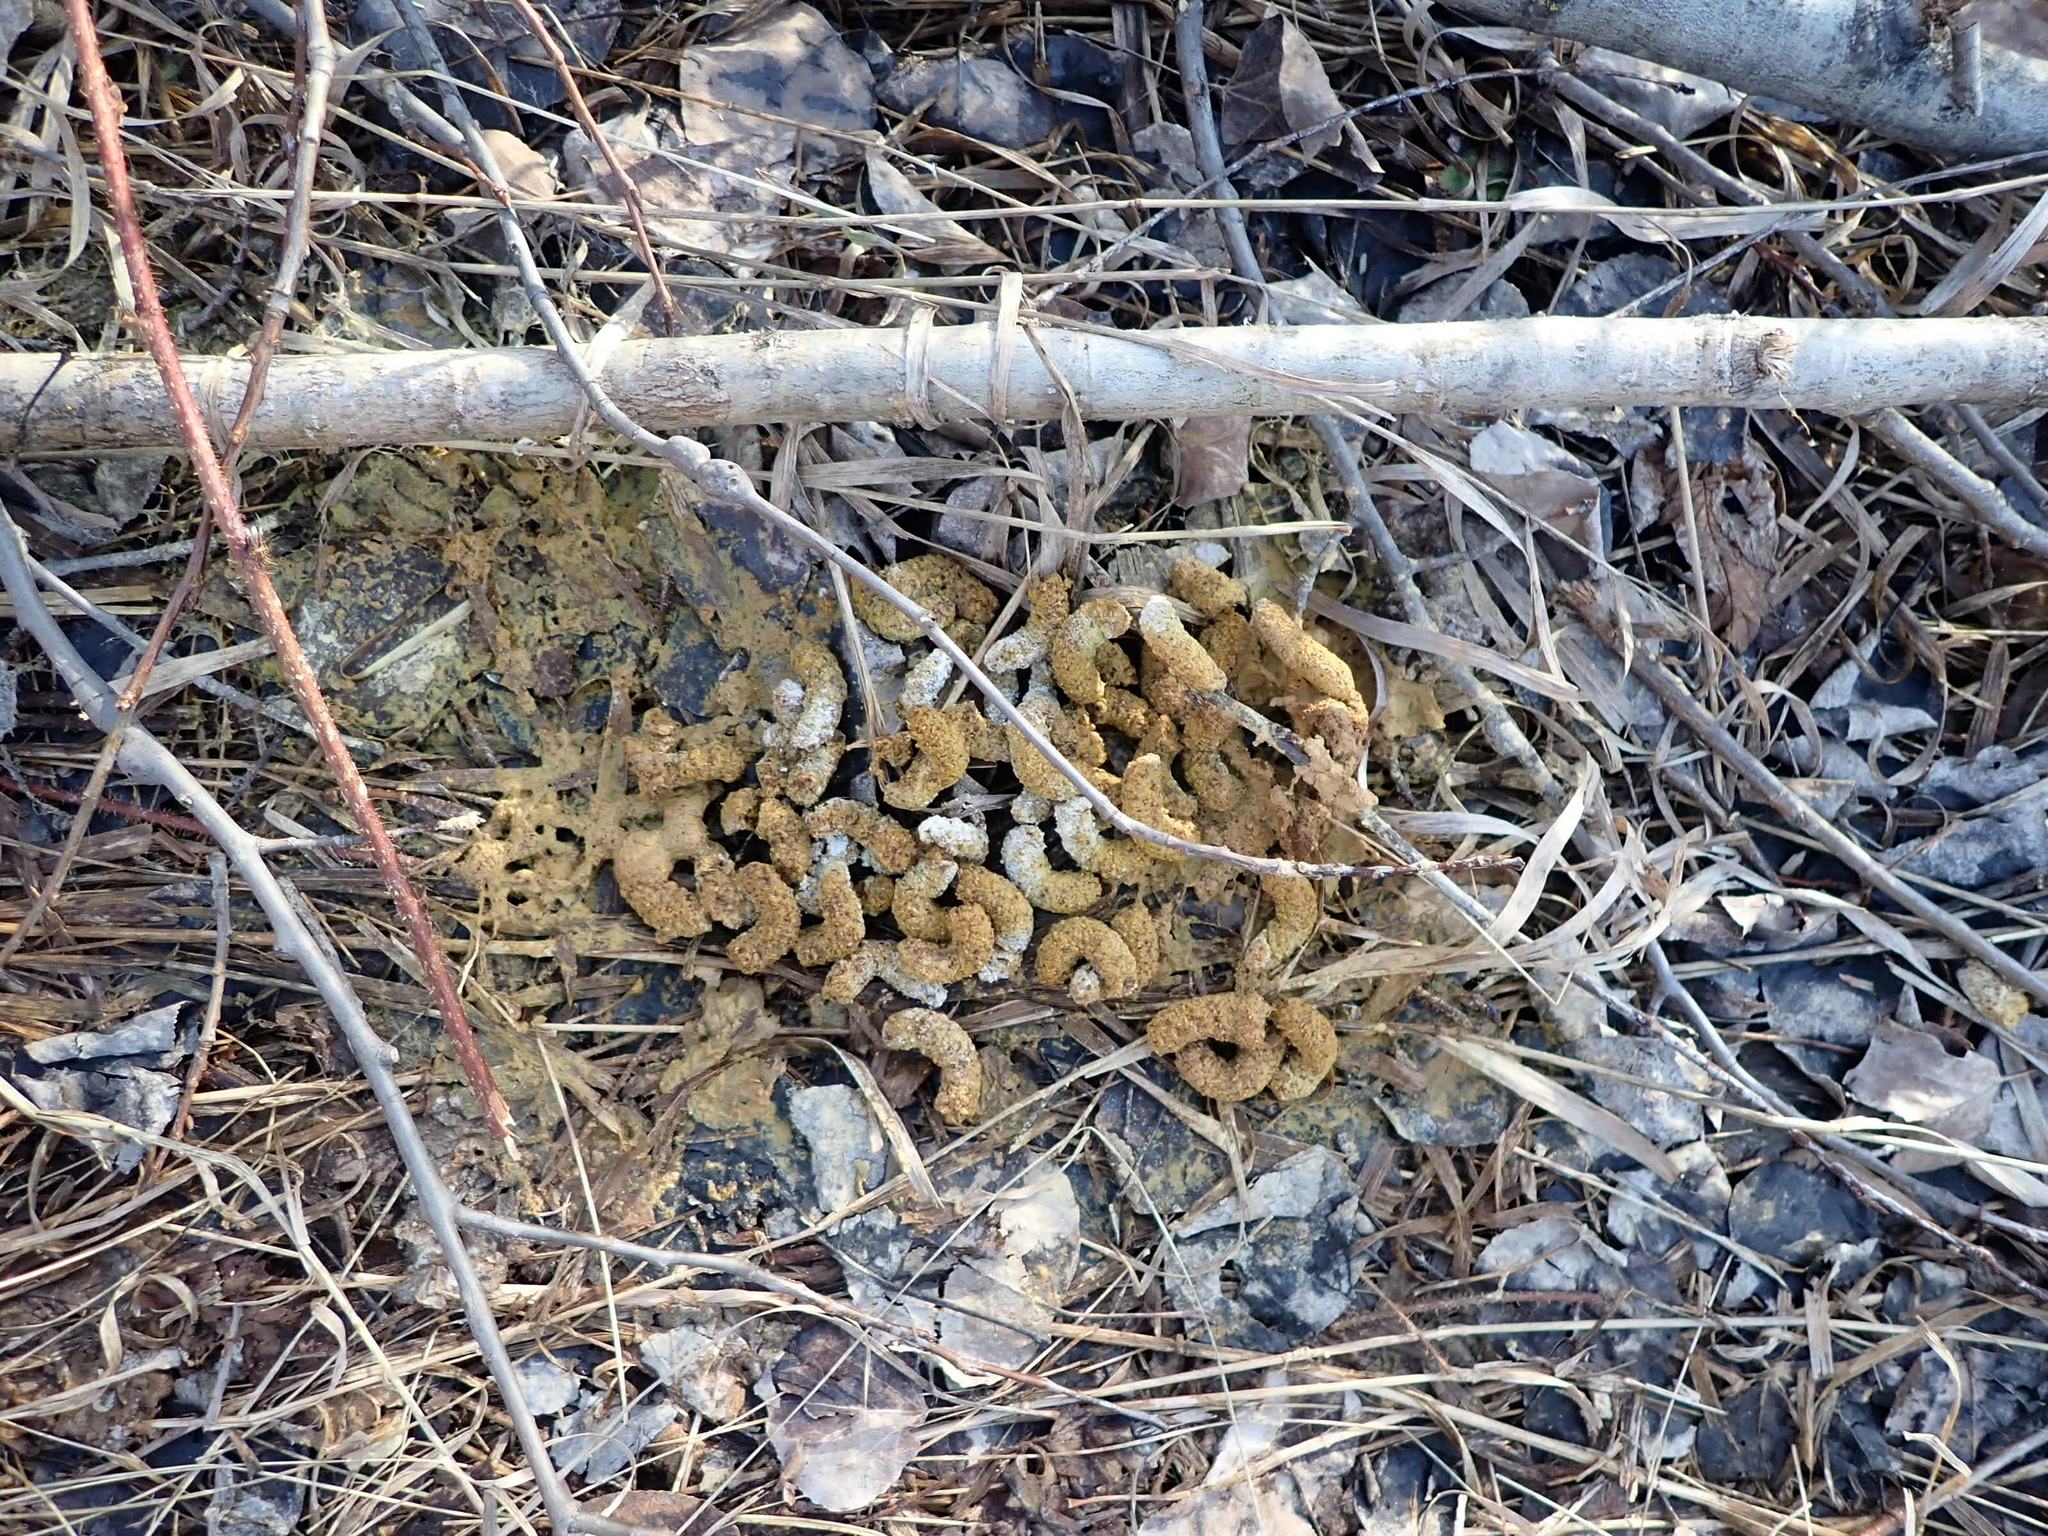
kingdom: Animalia
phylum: Chordata
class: Aves
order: Galliformes
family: Phasianidae
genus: Bonasa
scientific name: Bonasa umbellus
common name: Ruffed grouse
